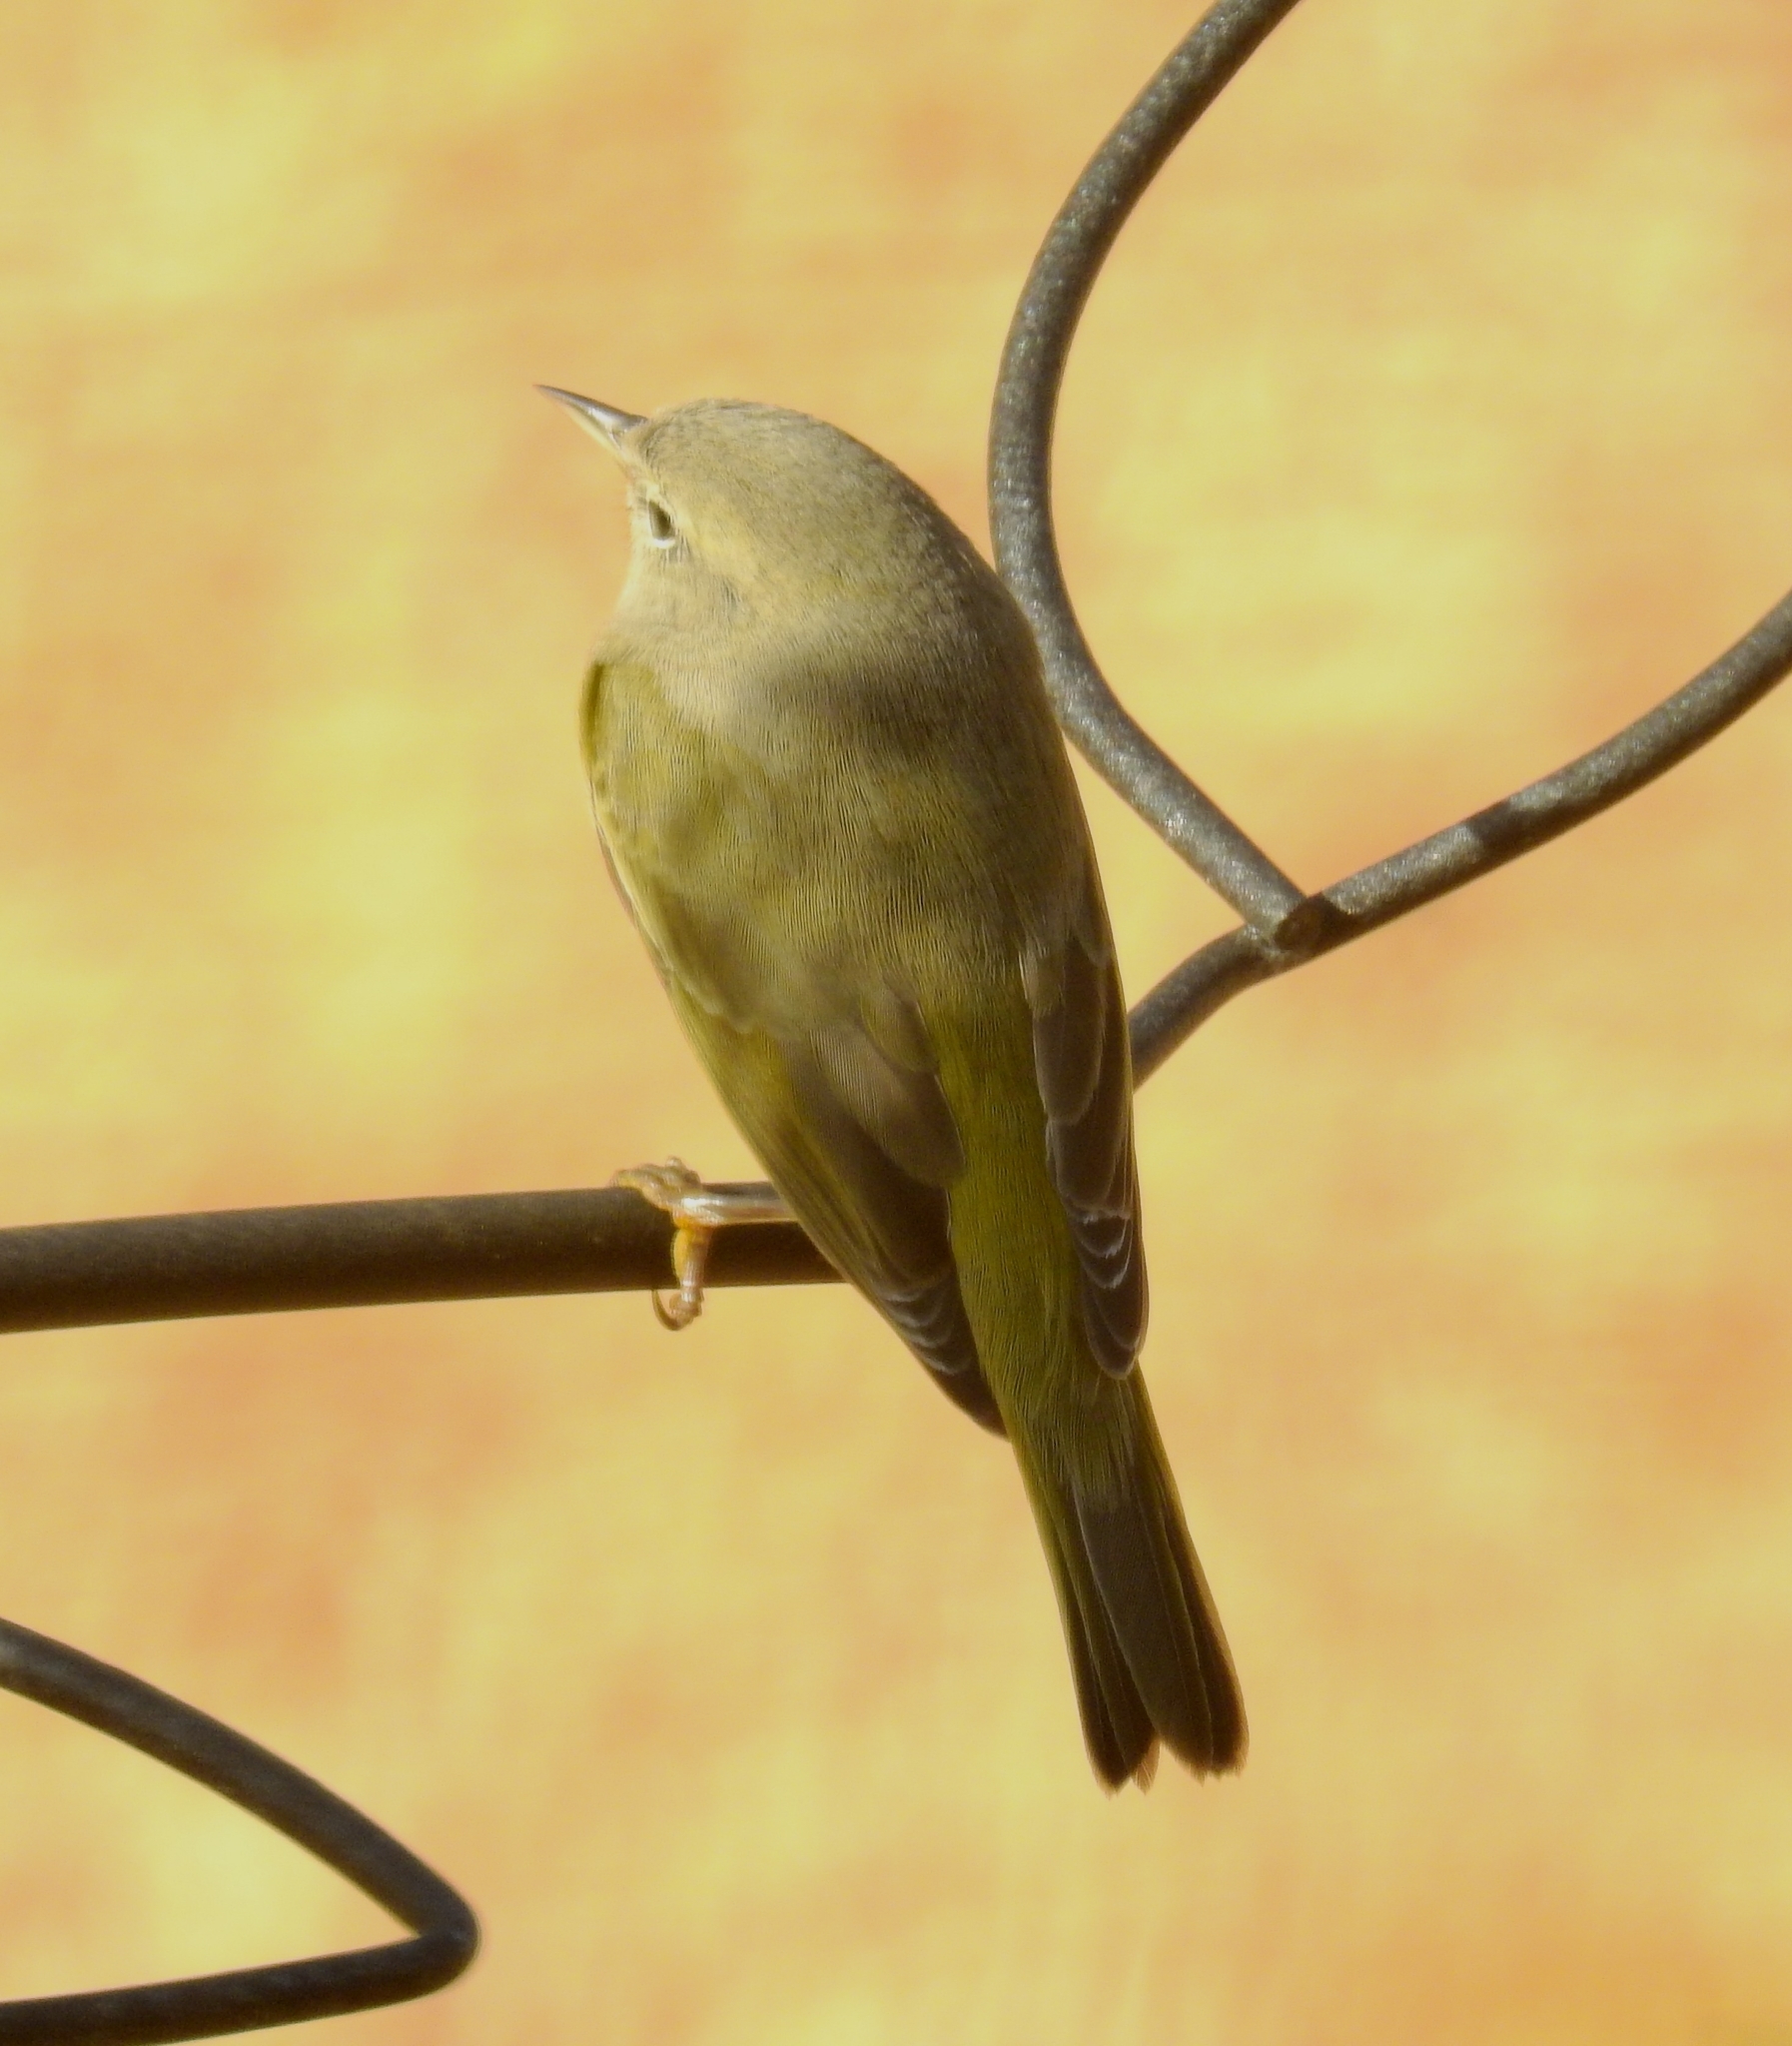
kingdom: Animalia
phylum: Chordata
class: Aves
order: Passeriformes
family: Parulidae
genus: Leiothlypis
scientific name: Leiothlypis celata
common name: Orange-crowned warbler
